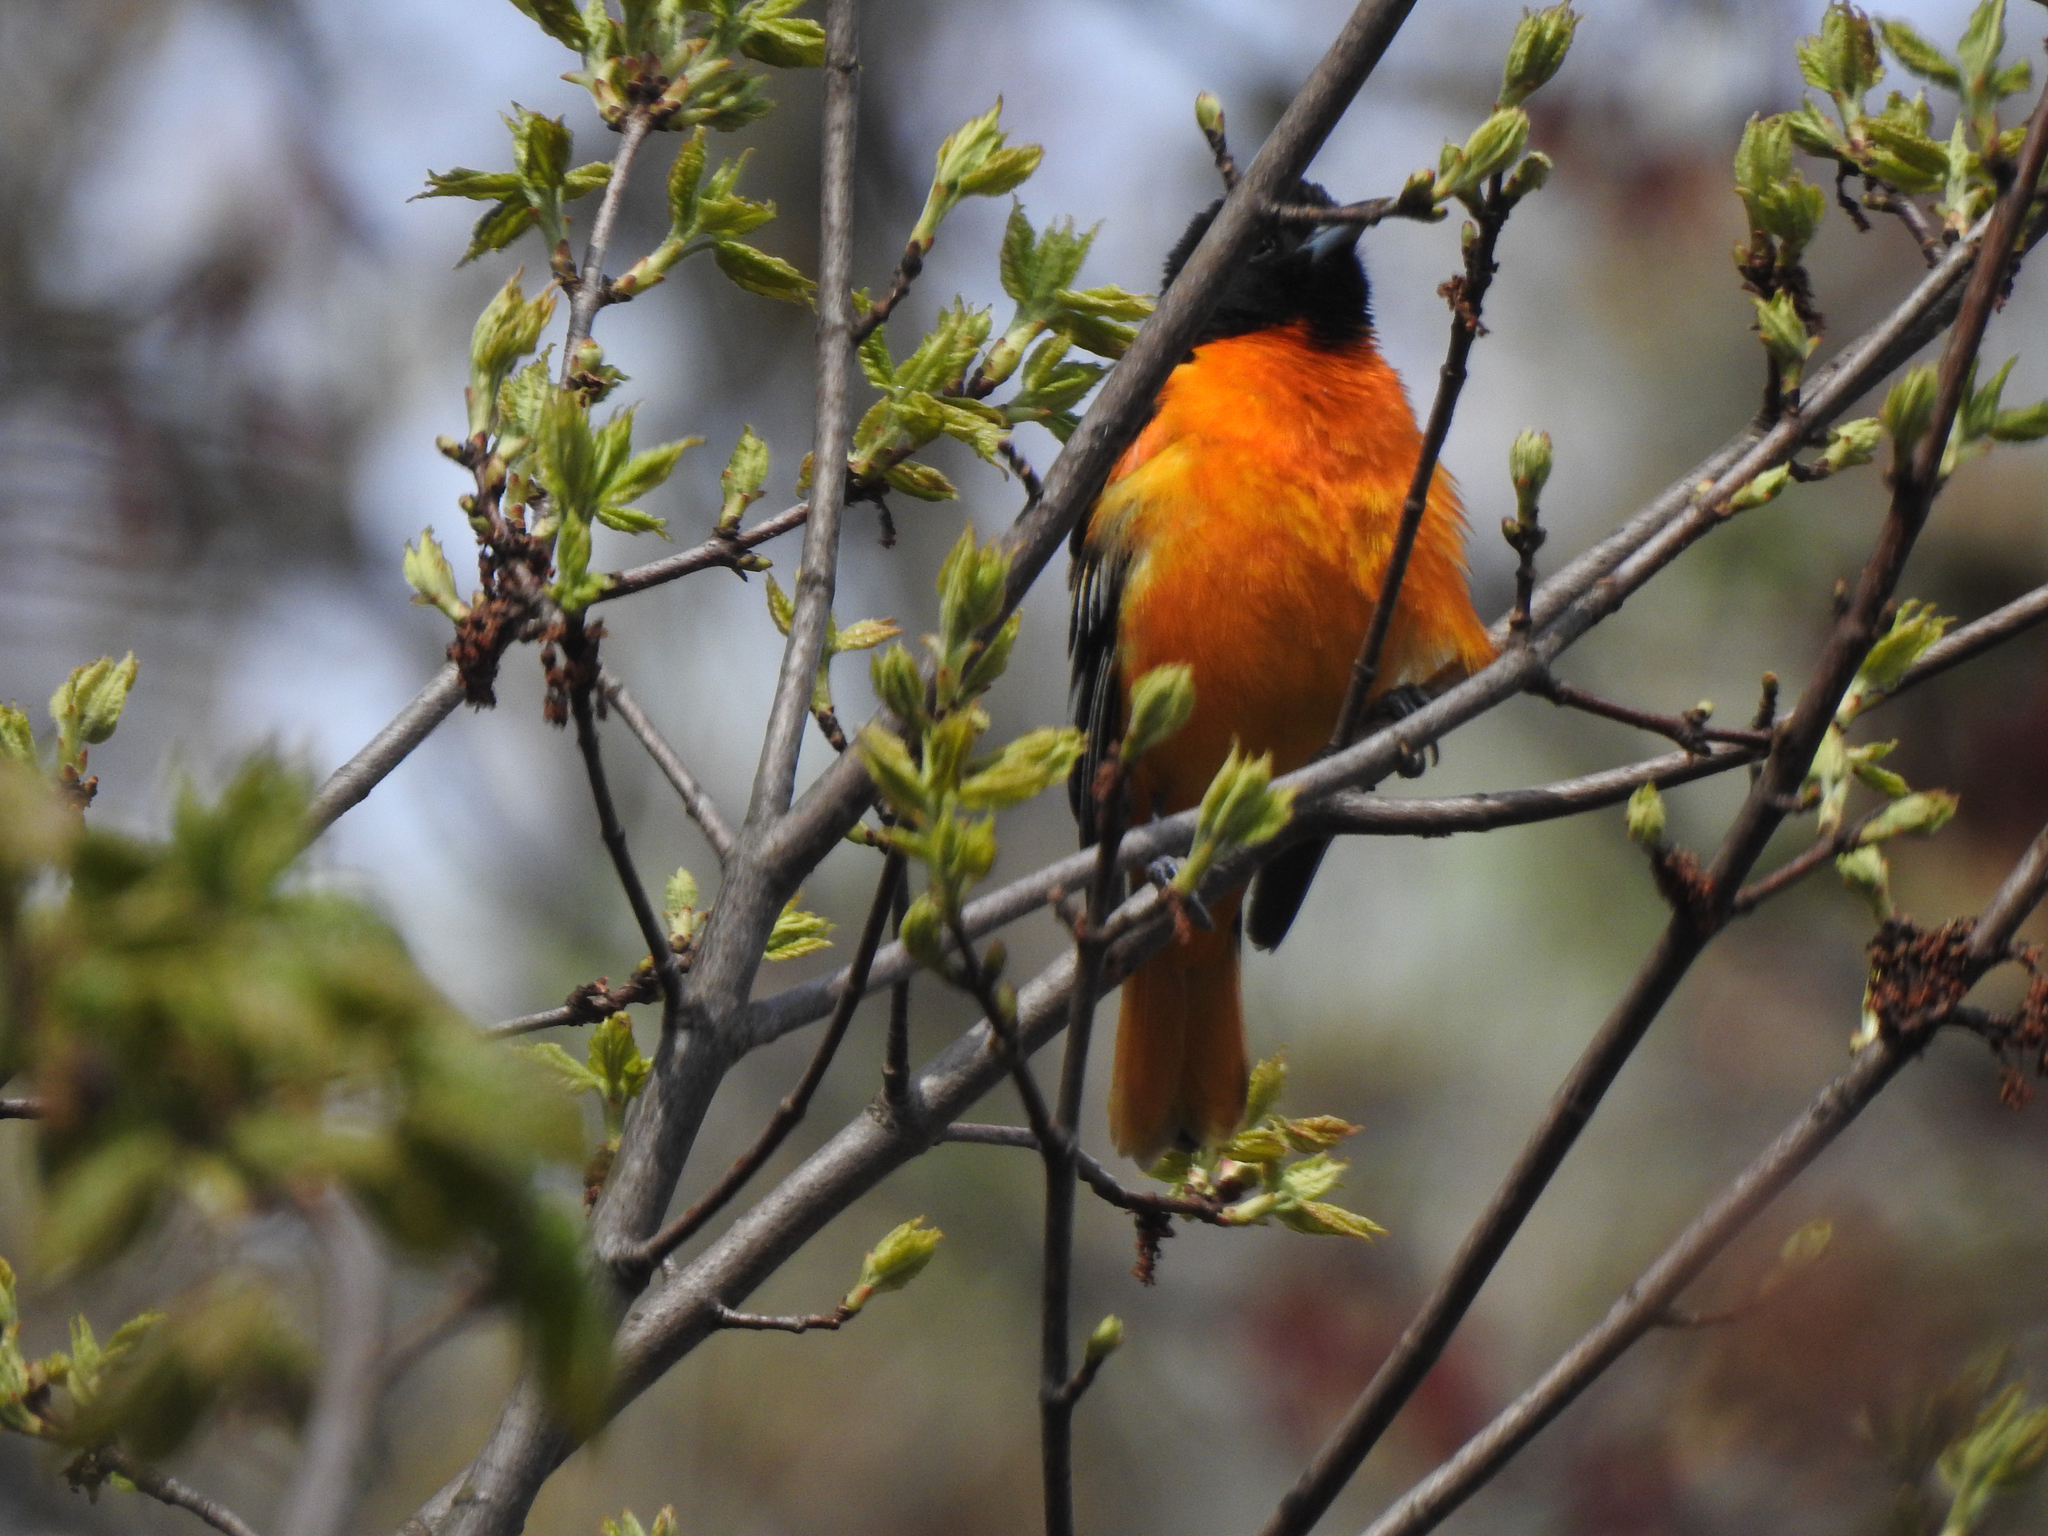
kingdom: Animalia
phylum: Chordata
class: Aves
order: Passeriformes
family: Icteridae
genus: Icterus
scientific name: Icterus galbula
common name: Baltimore oriole
